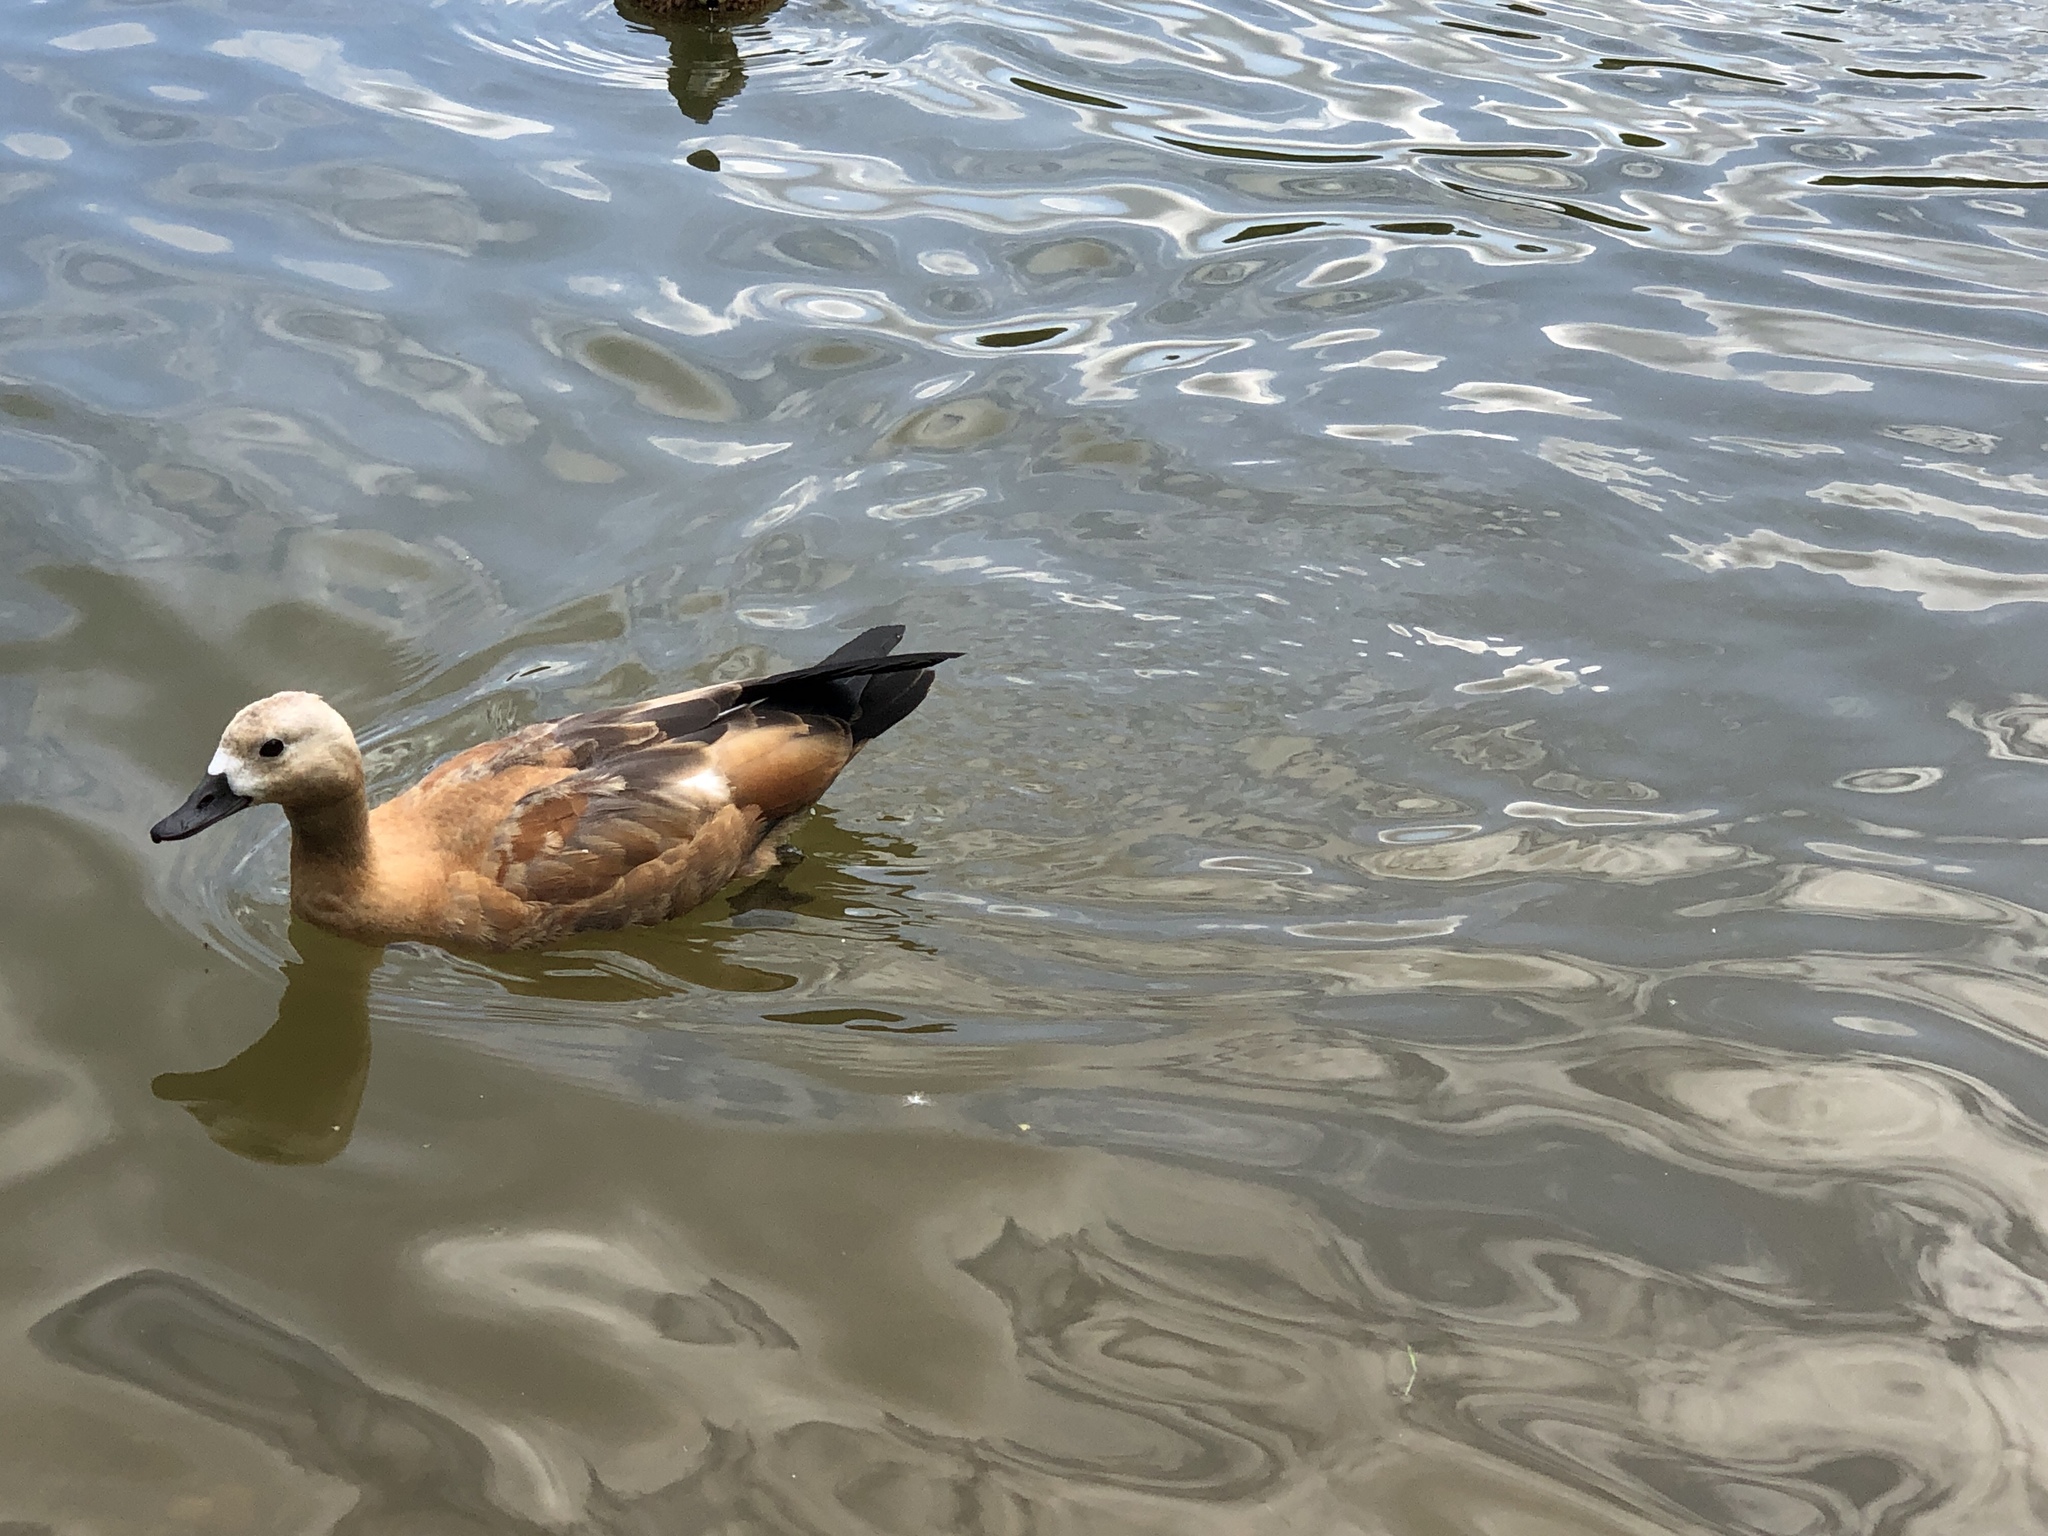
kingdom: Animalia
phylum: Chordata
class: Aves
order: Anseriformes
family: Anatidae
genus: Tadorna
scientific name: Tadorna ferruginea
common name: Ruddy shelduck
